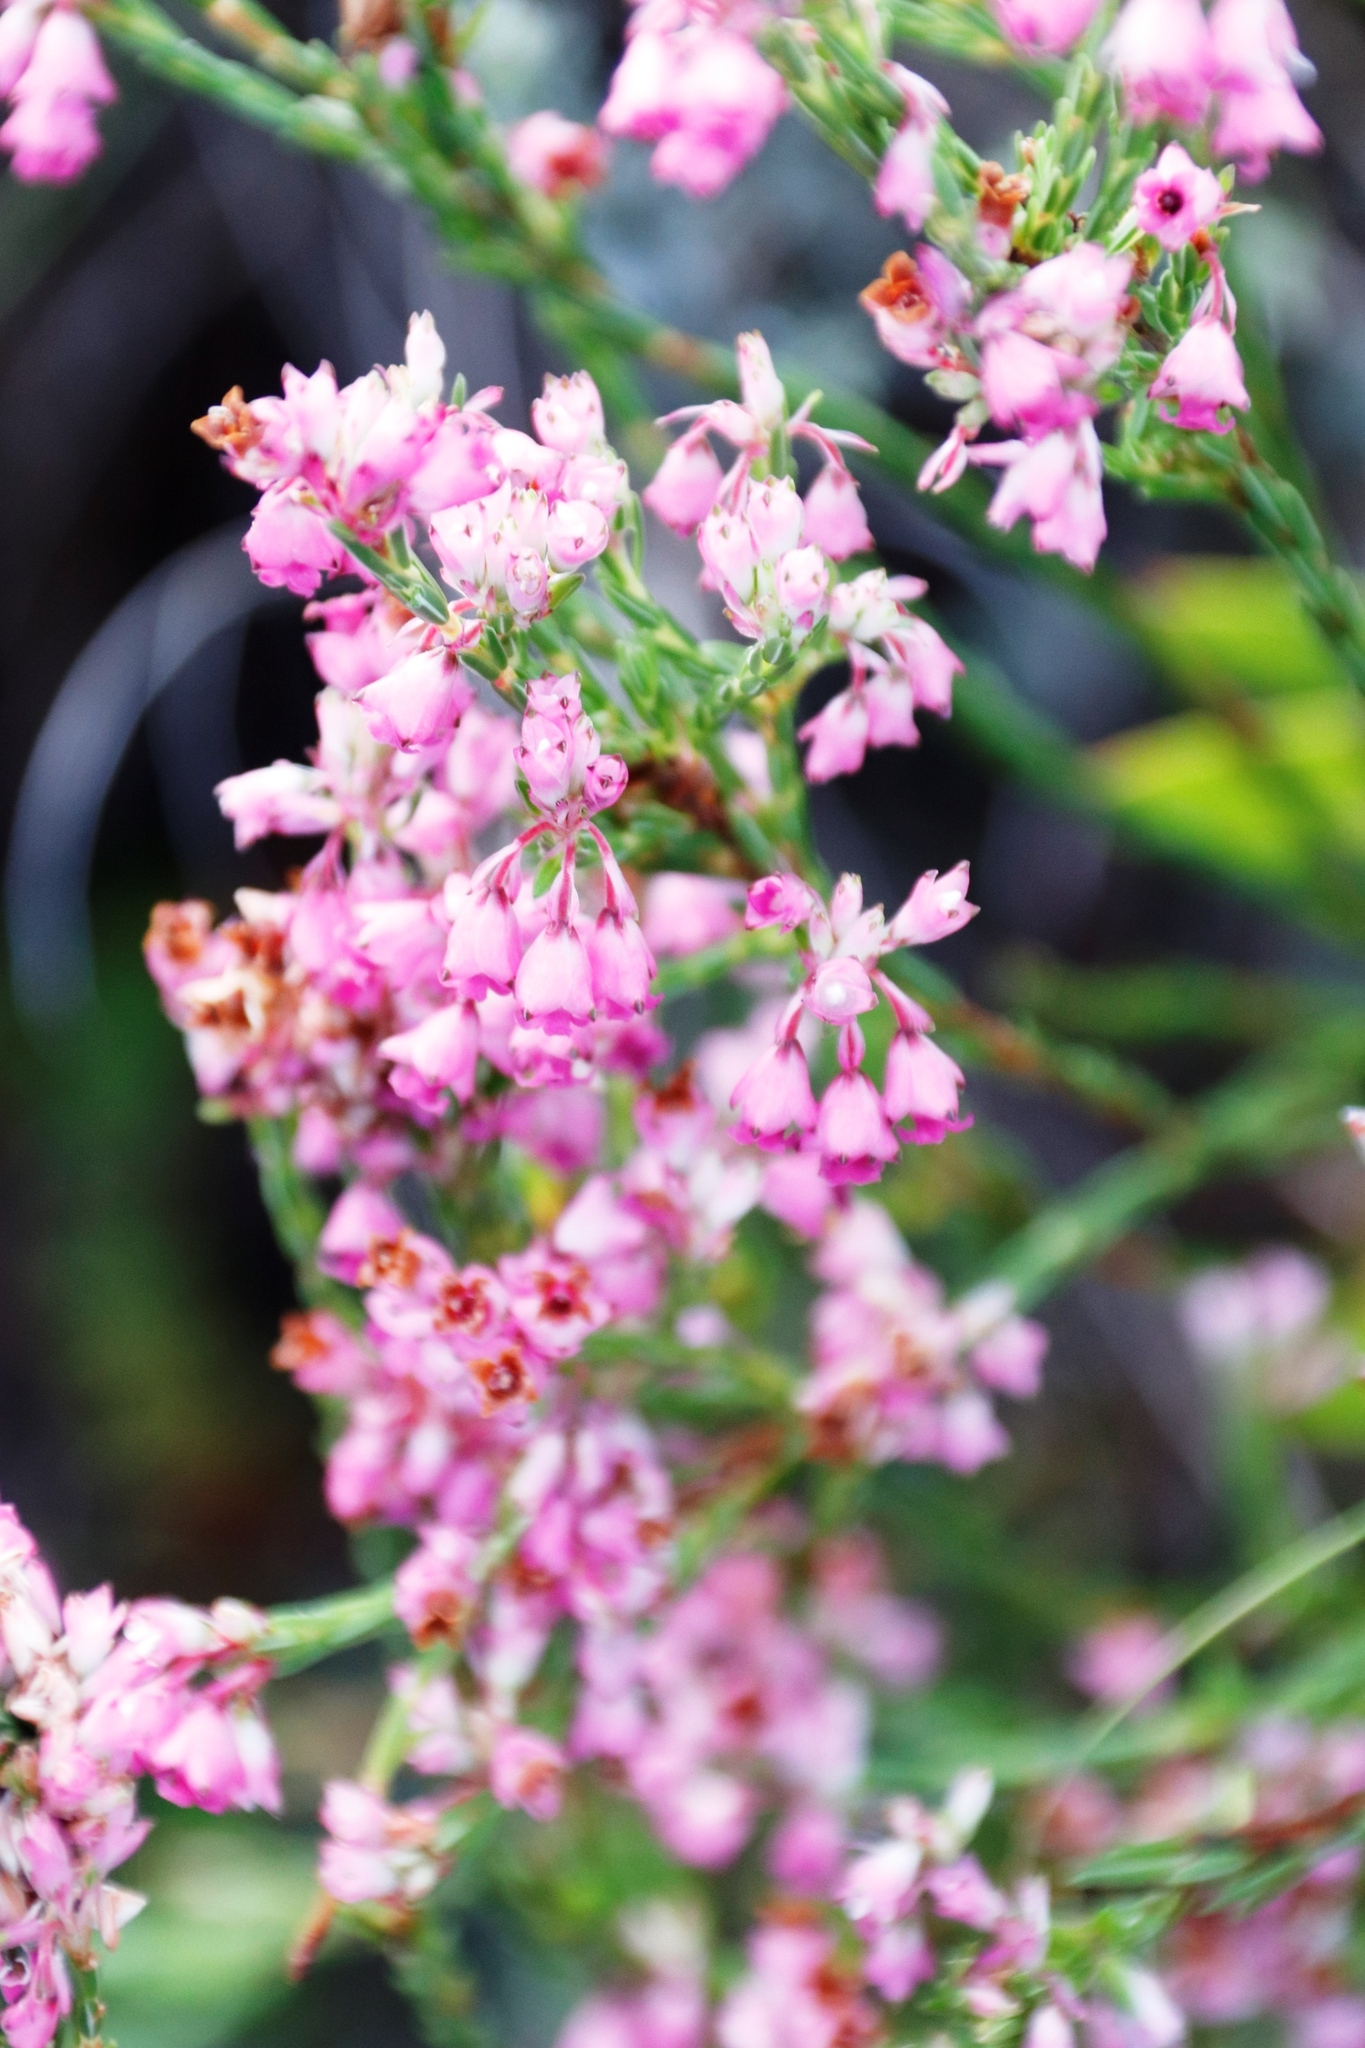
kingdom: Plantae
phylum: Tracheophyta
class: Magnoliopsida
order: Ericales
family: Ericaceae
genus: Erica
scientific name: Erica articularis
